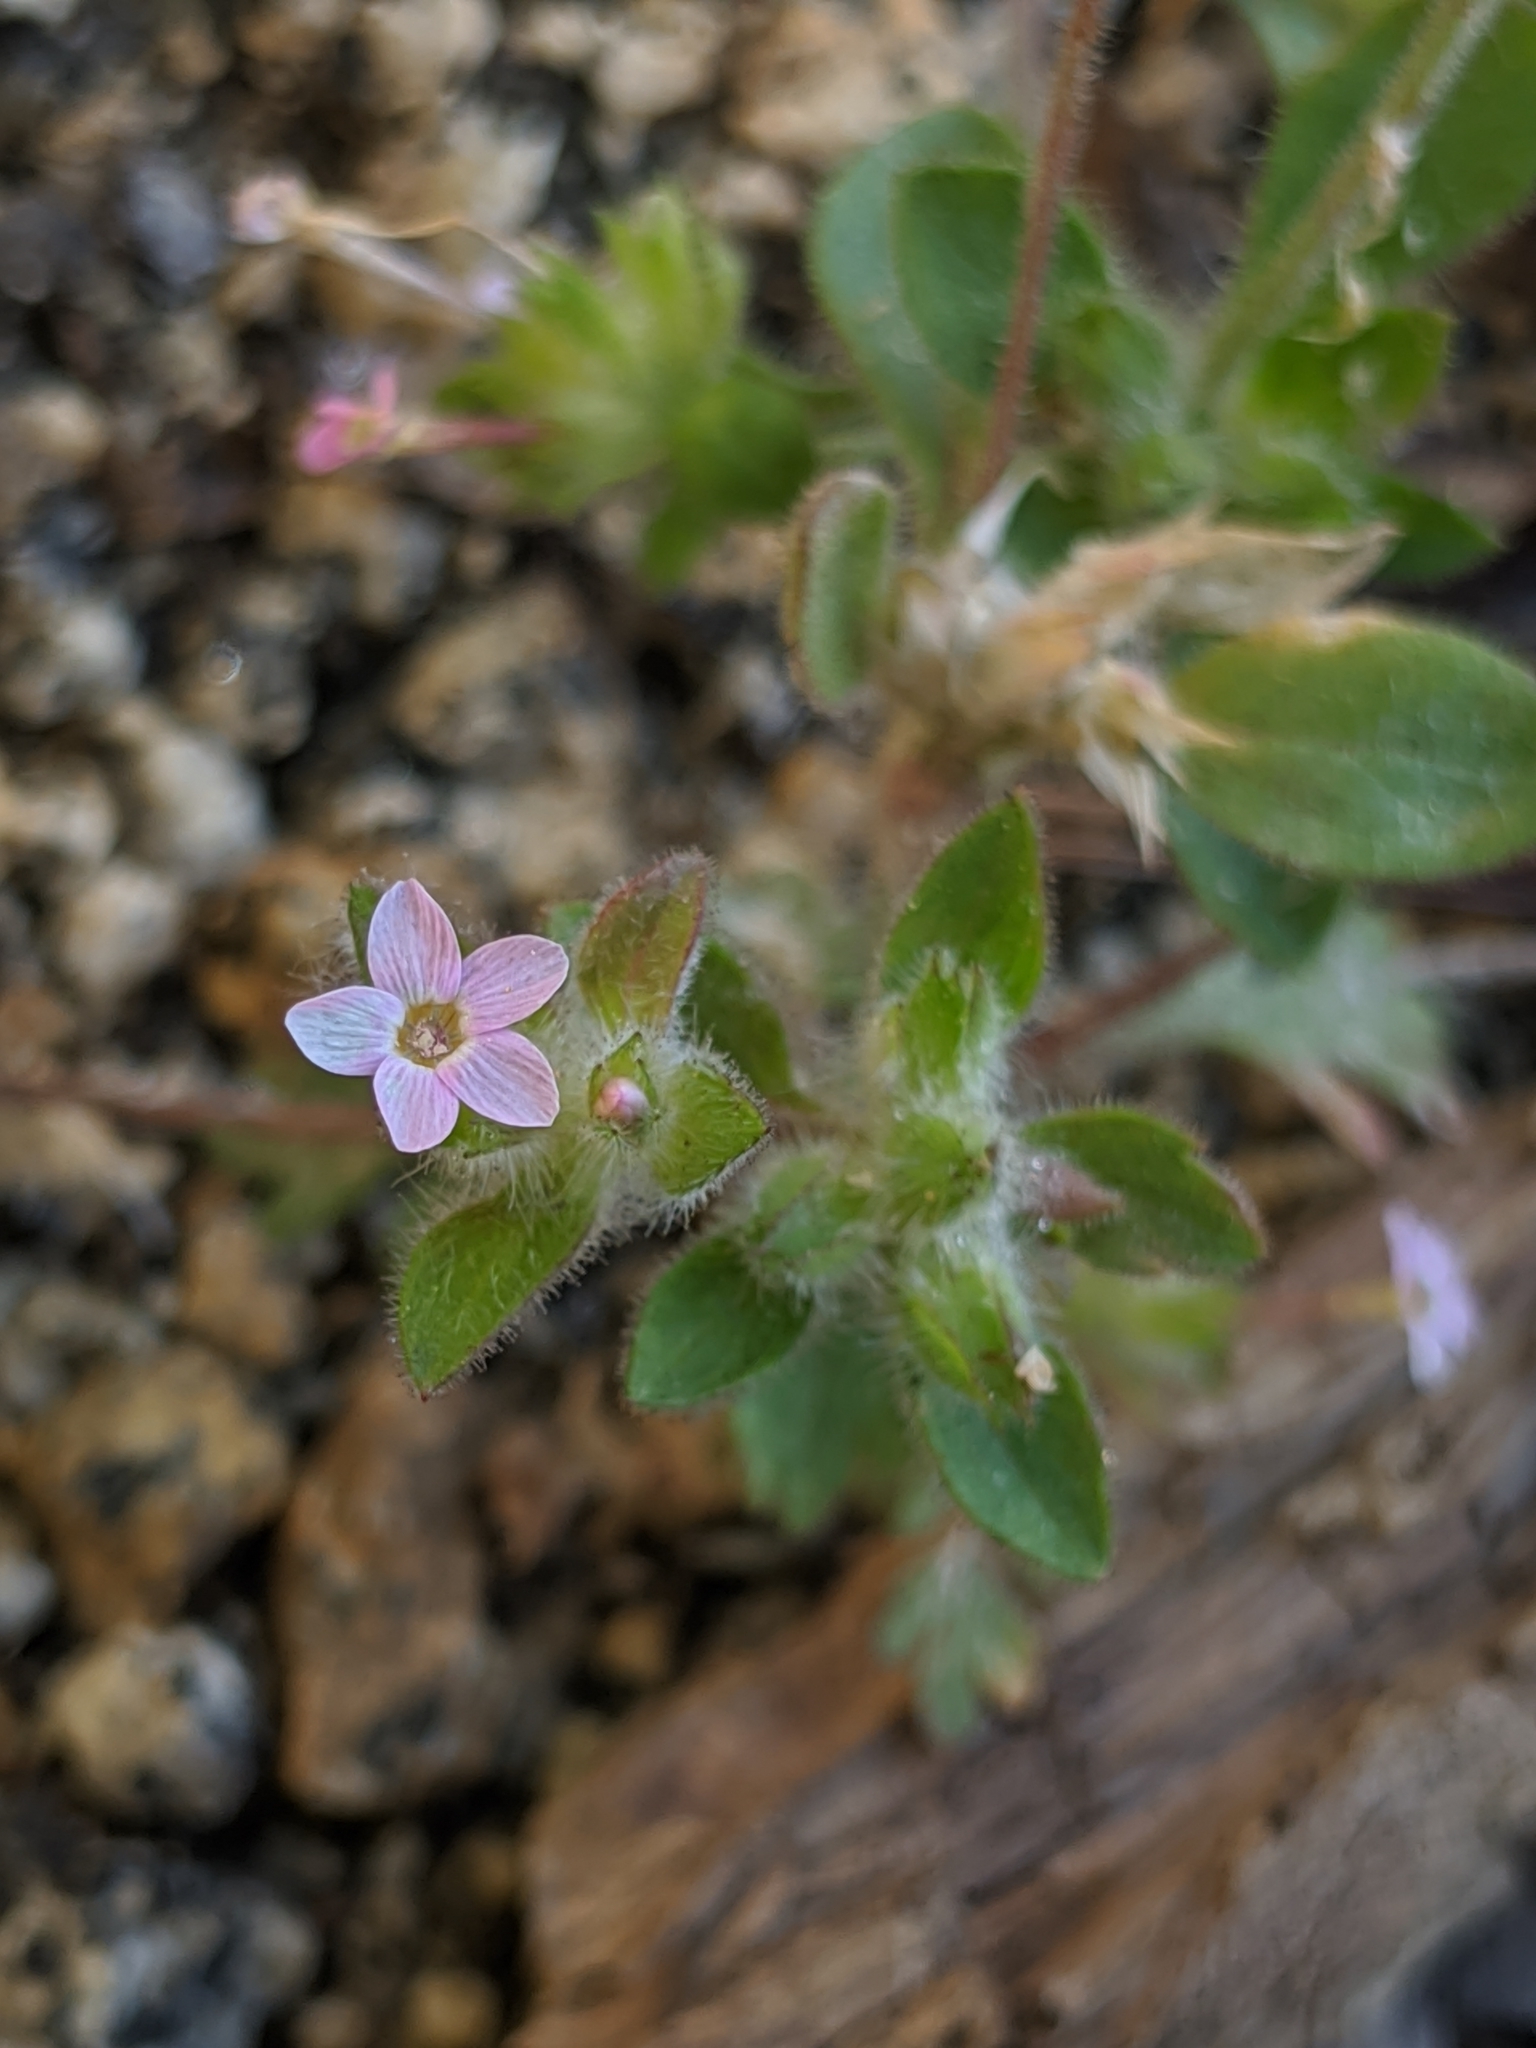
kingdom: Plantae
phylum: Tracheophyta
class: Magnoliopsida
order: Ericales
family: Polemoniaceae
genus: Collomia
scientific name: Collomia heterophylla
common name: Variable-leaved collomia
